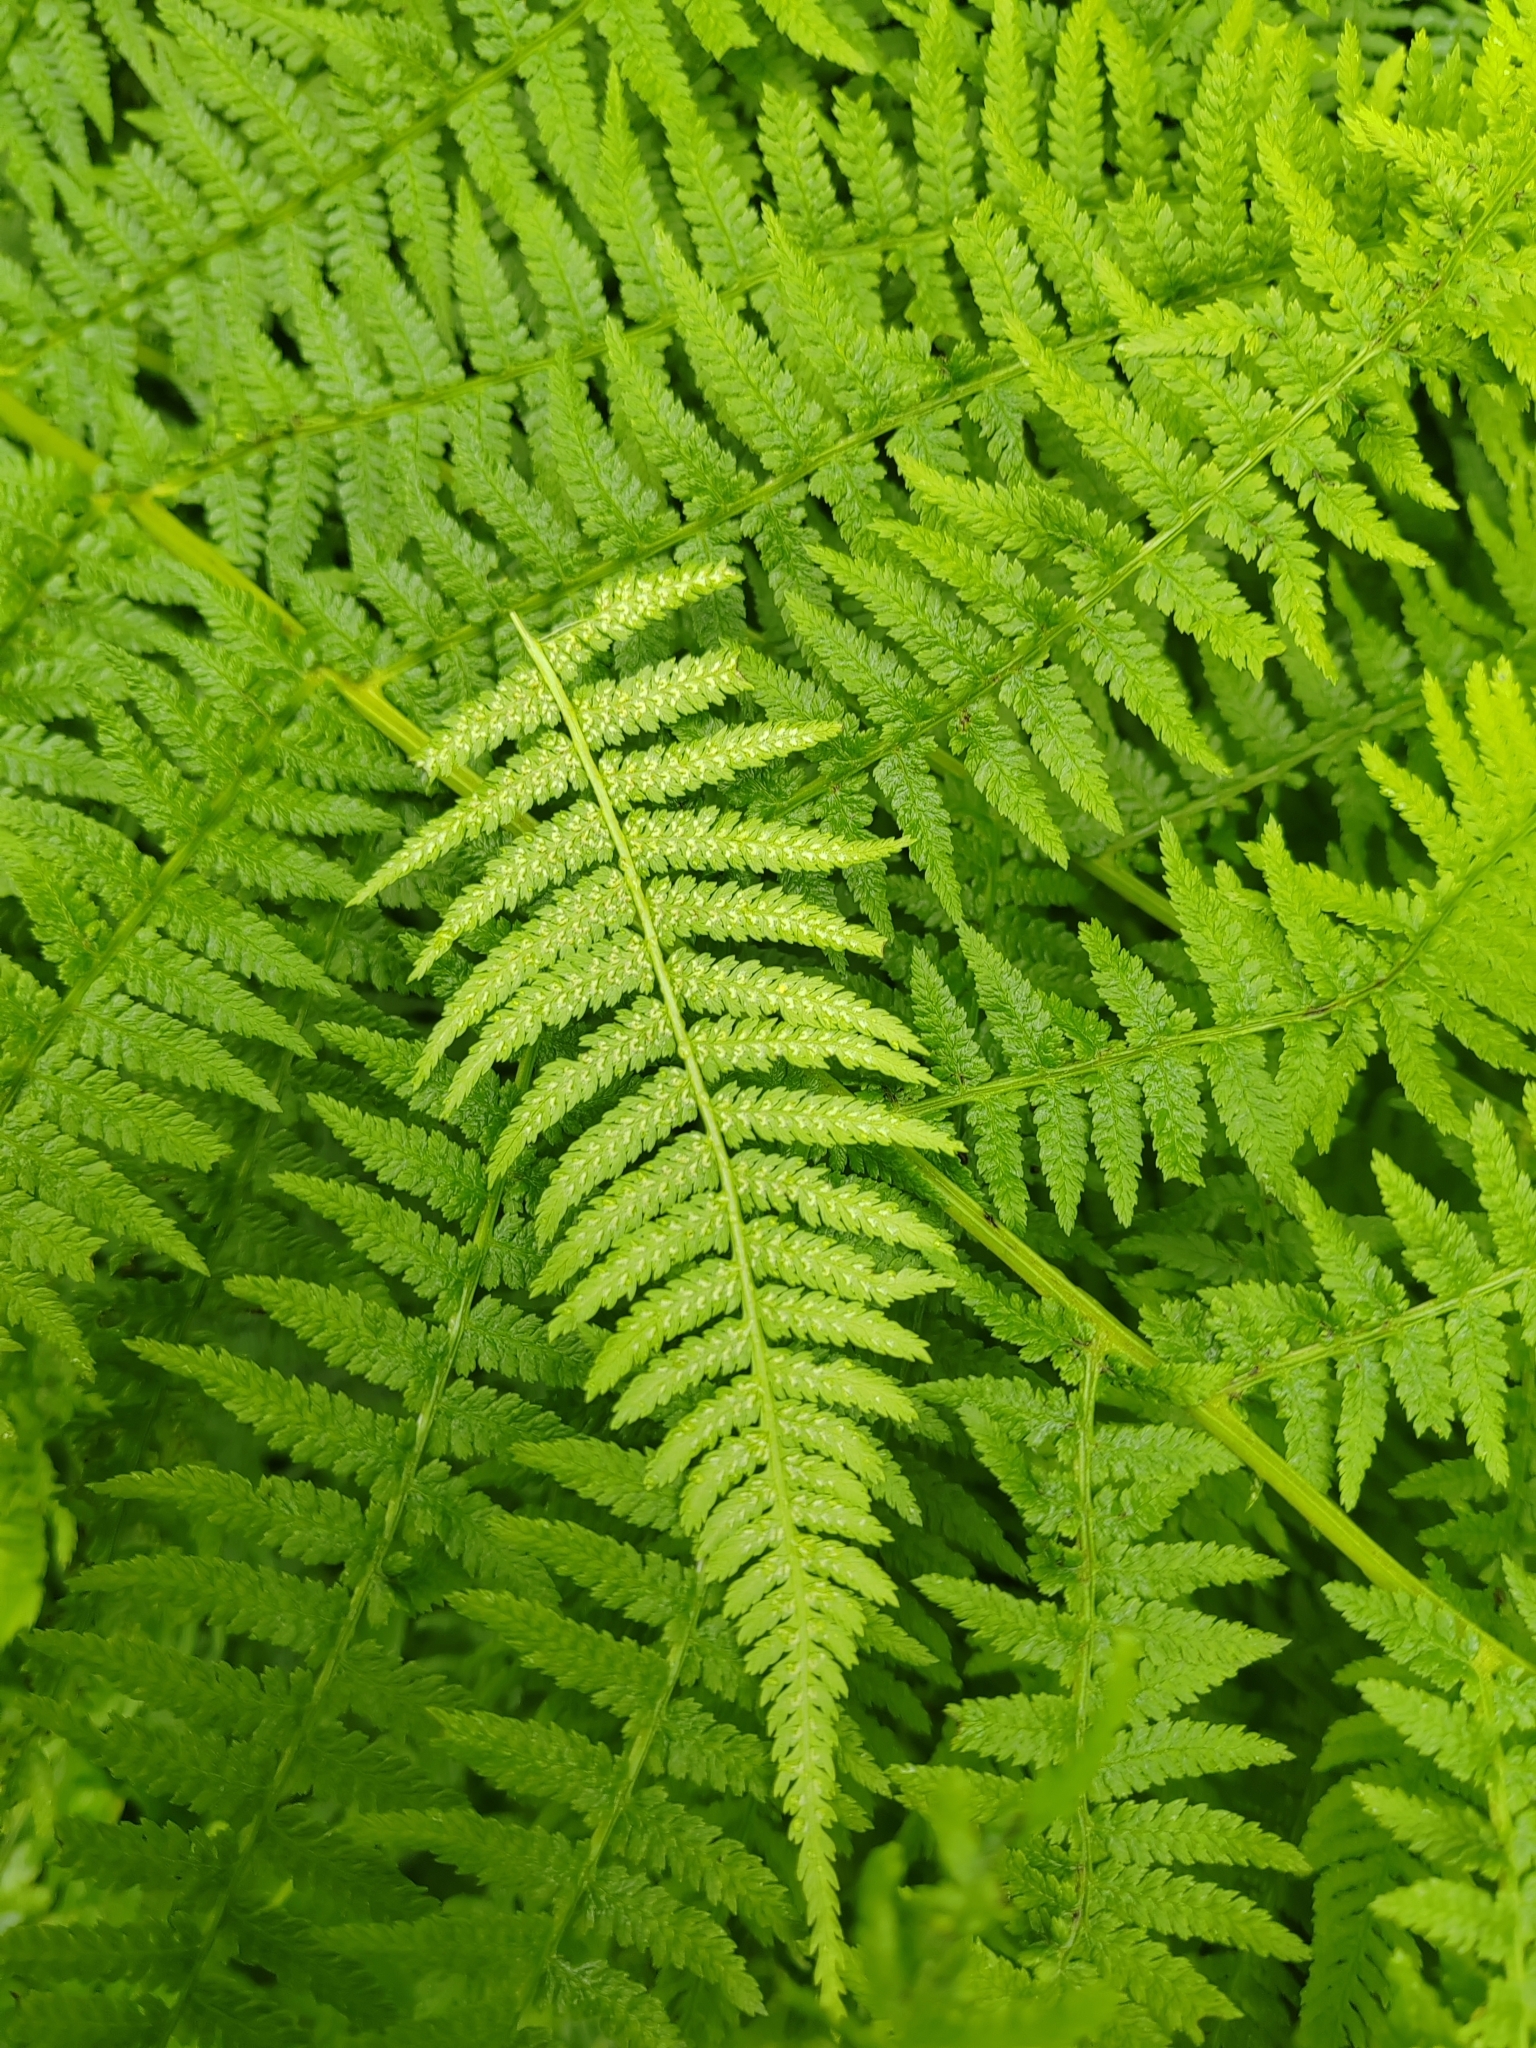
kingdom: Plantae
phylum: Tracheophyta
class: Polypodiopsida
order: Polypodiales
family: Athyriaceae
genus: Athyrium
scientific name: Athyrium filix-femina
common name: Lady fern
